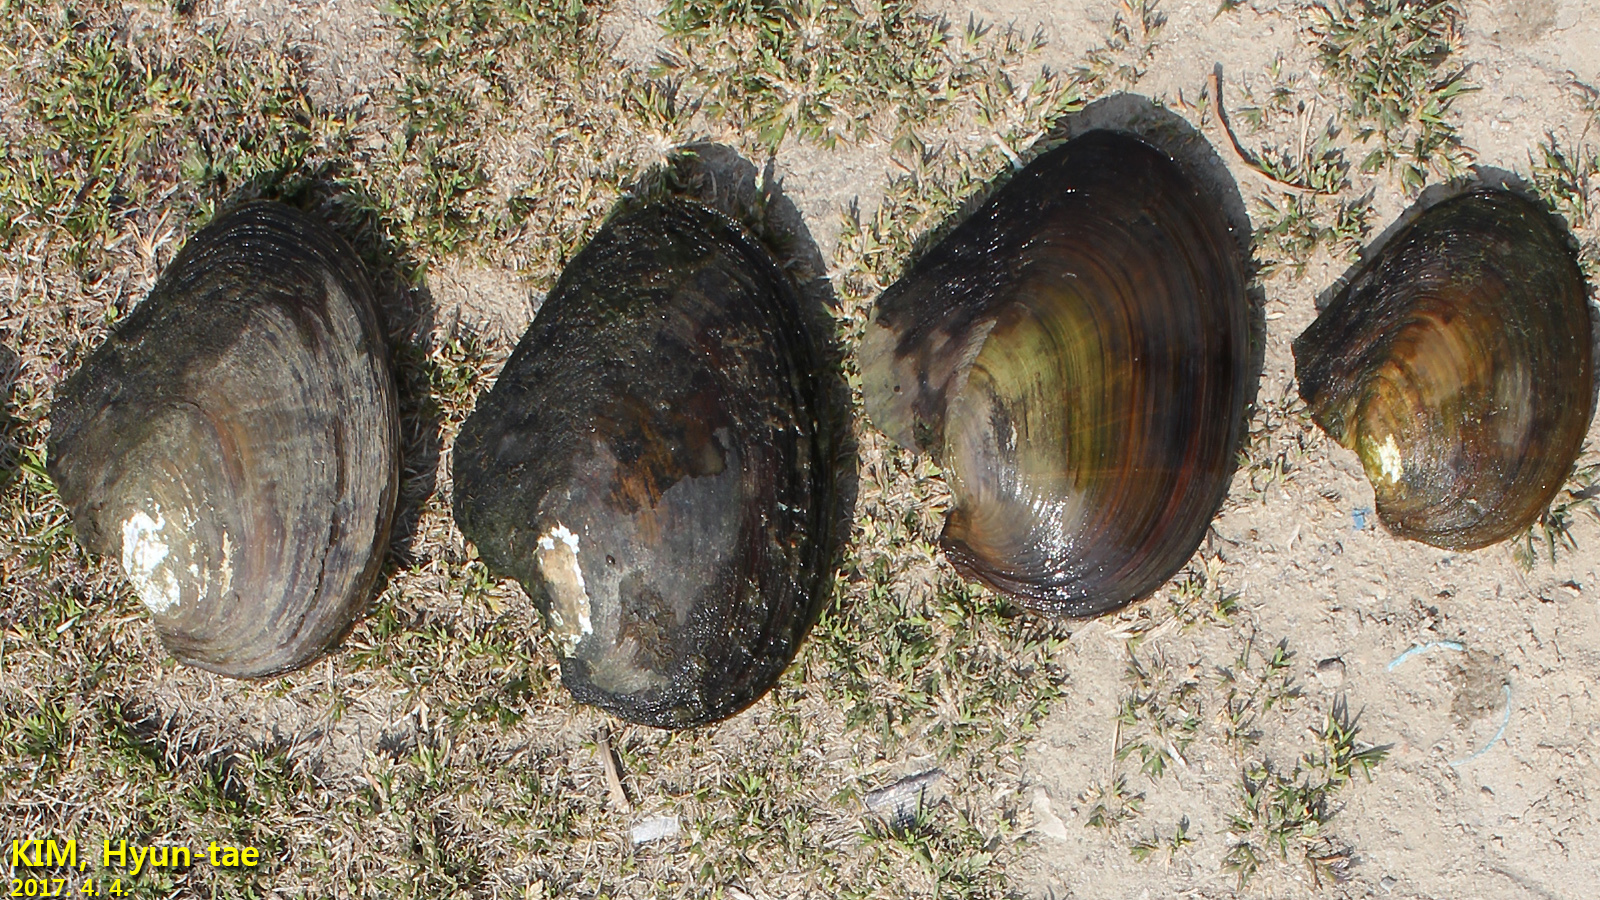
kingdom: Animalia
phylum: Mollusca
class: Bivalvia
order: Unionida
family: Unionidae
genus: Cristaria
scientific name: Cristaria plicata
